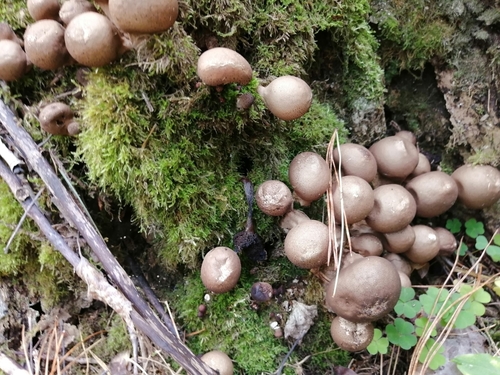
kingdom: Fungi
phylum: Basidiomycota
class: Agaricomycetes
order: Agaricales
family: Lycoperdaceae
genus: Apioperdon
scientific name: Apioperdon pyriforme
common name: Pear-shaped puffball
